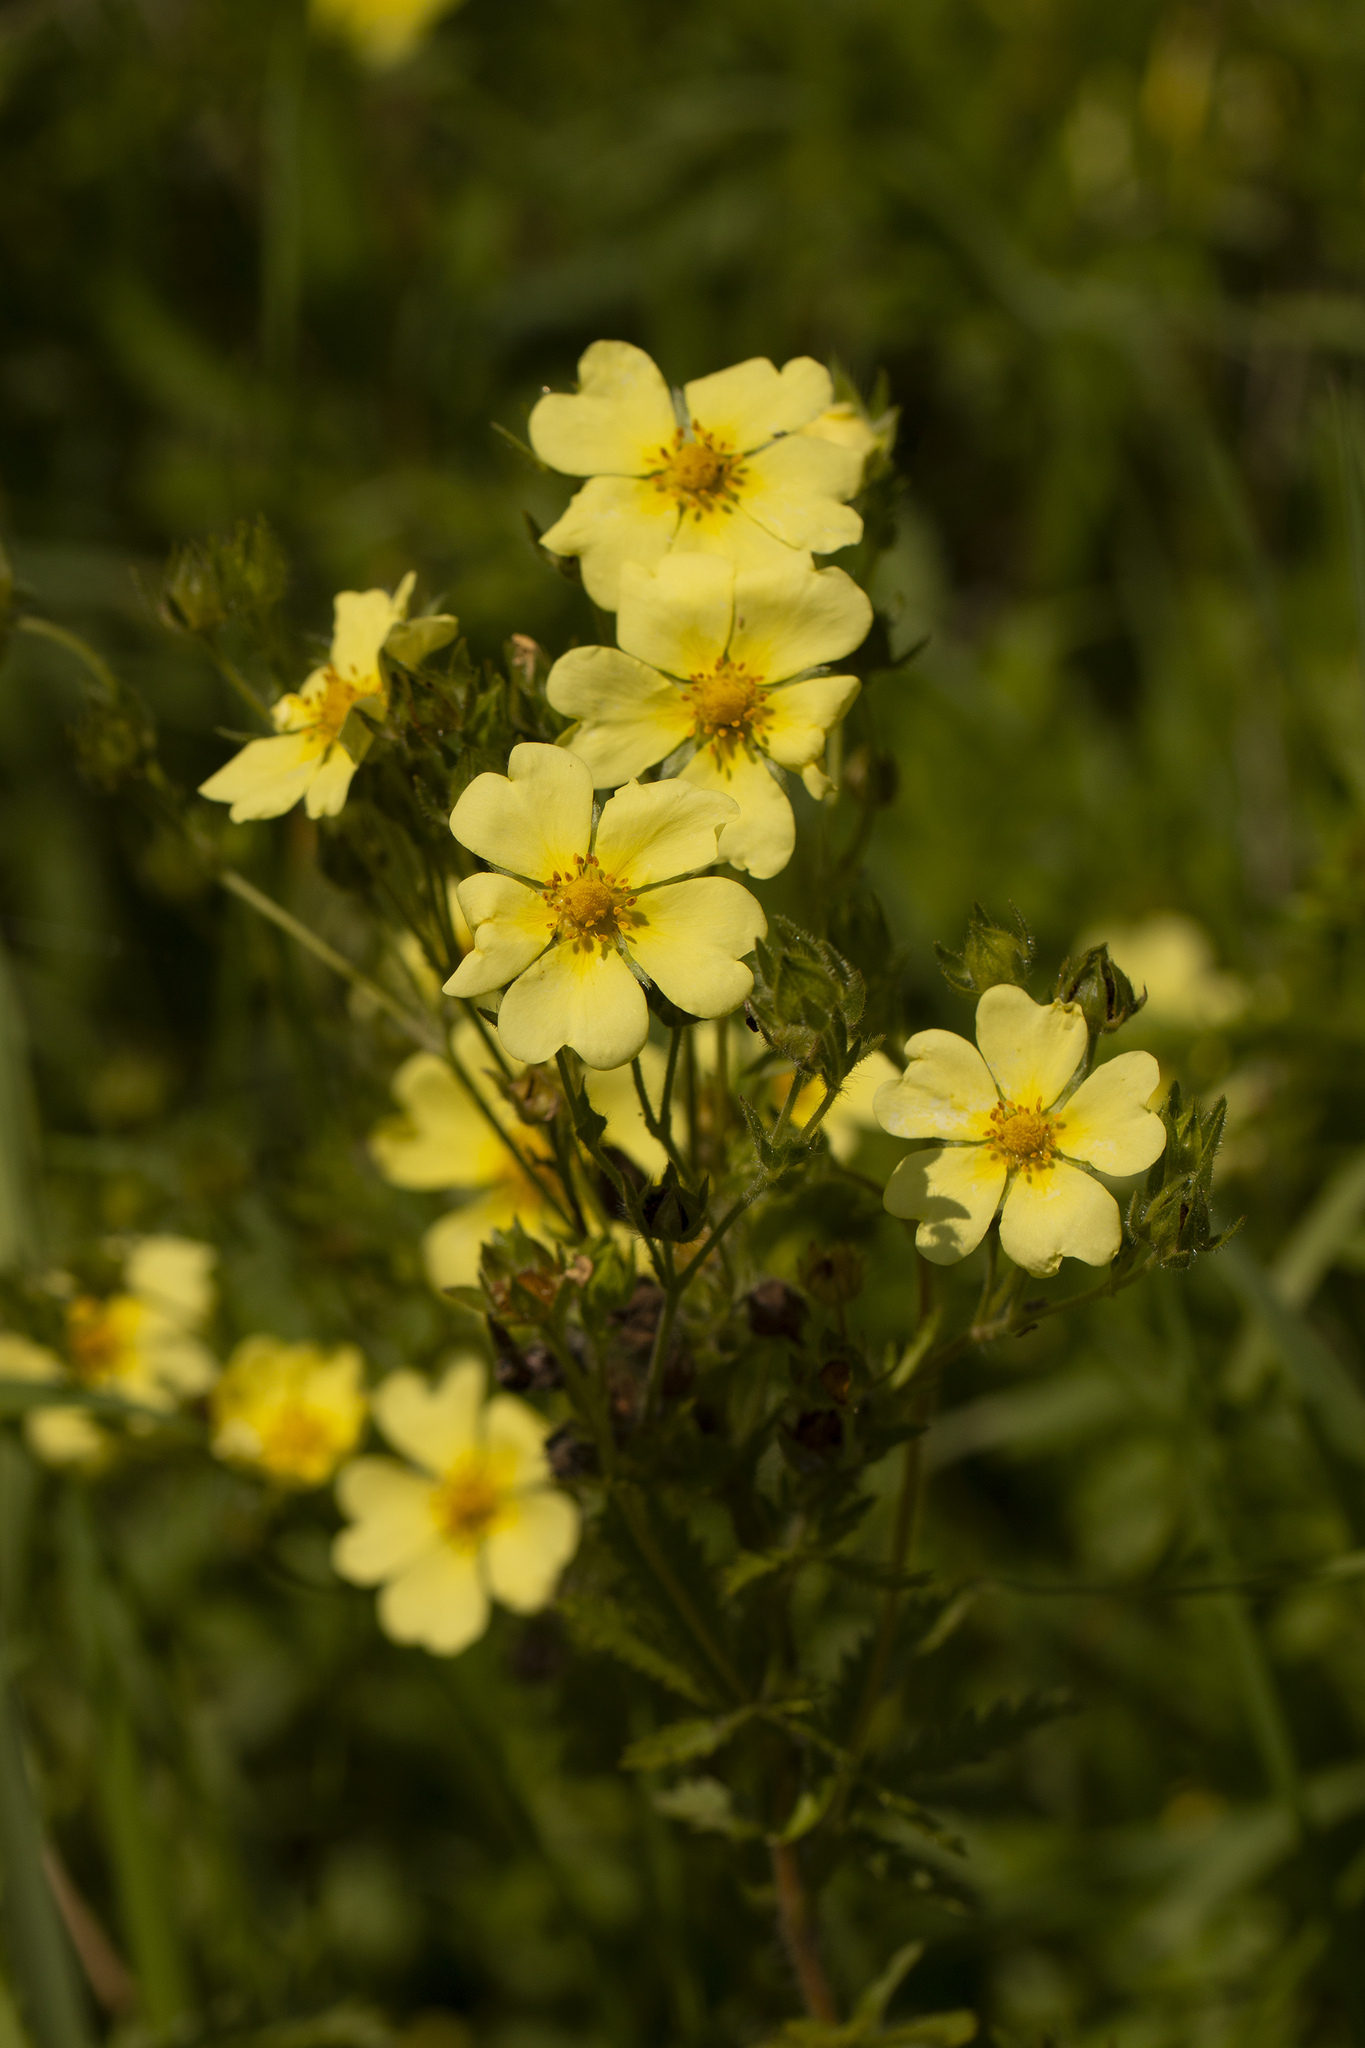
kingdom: Plantae
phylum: Tracheophyta
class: Magnoliopsida
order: Rosales
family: Rosaceae
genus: Potentilla
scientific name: Potentilla recta
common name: Sulphur cinquefoil
